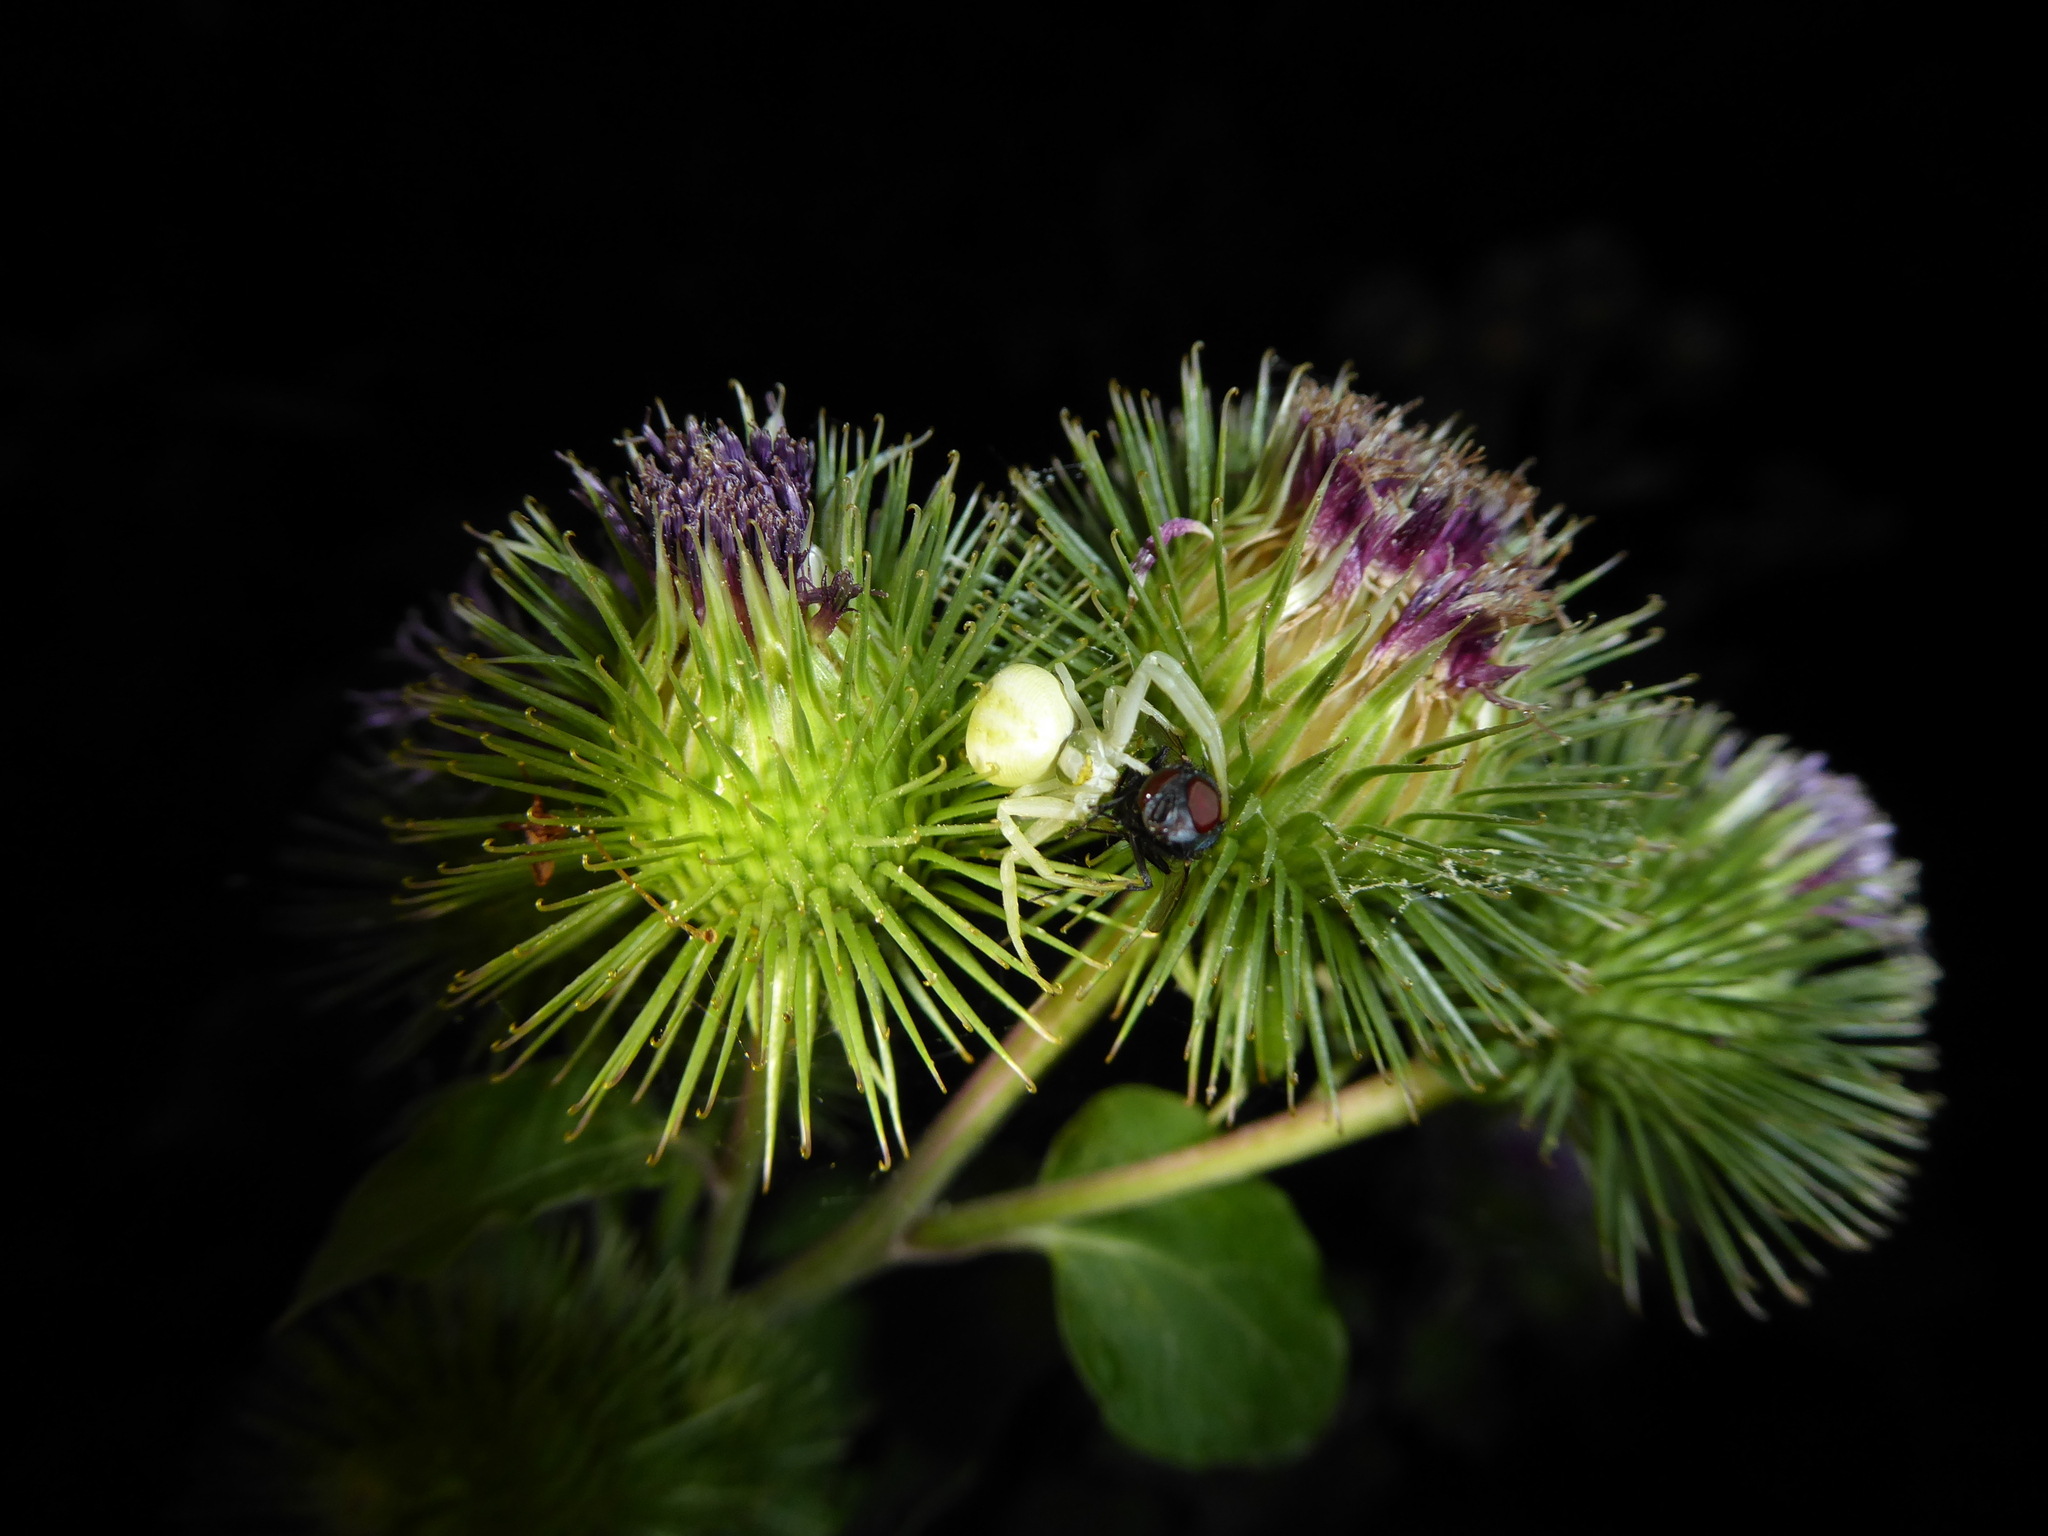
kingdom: Animalia
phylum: Arthropoda
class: Arachnida
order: Araneae
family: Thomisidae
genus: Misumena
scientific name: Misumena vatia
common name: Goldenrod crab spider
